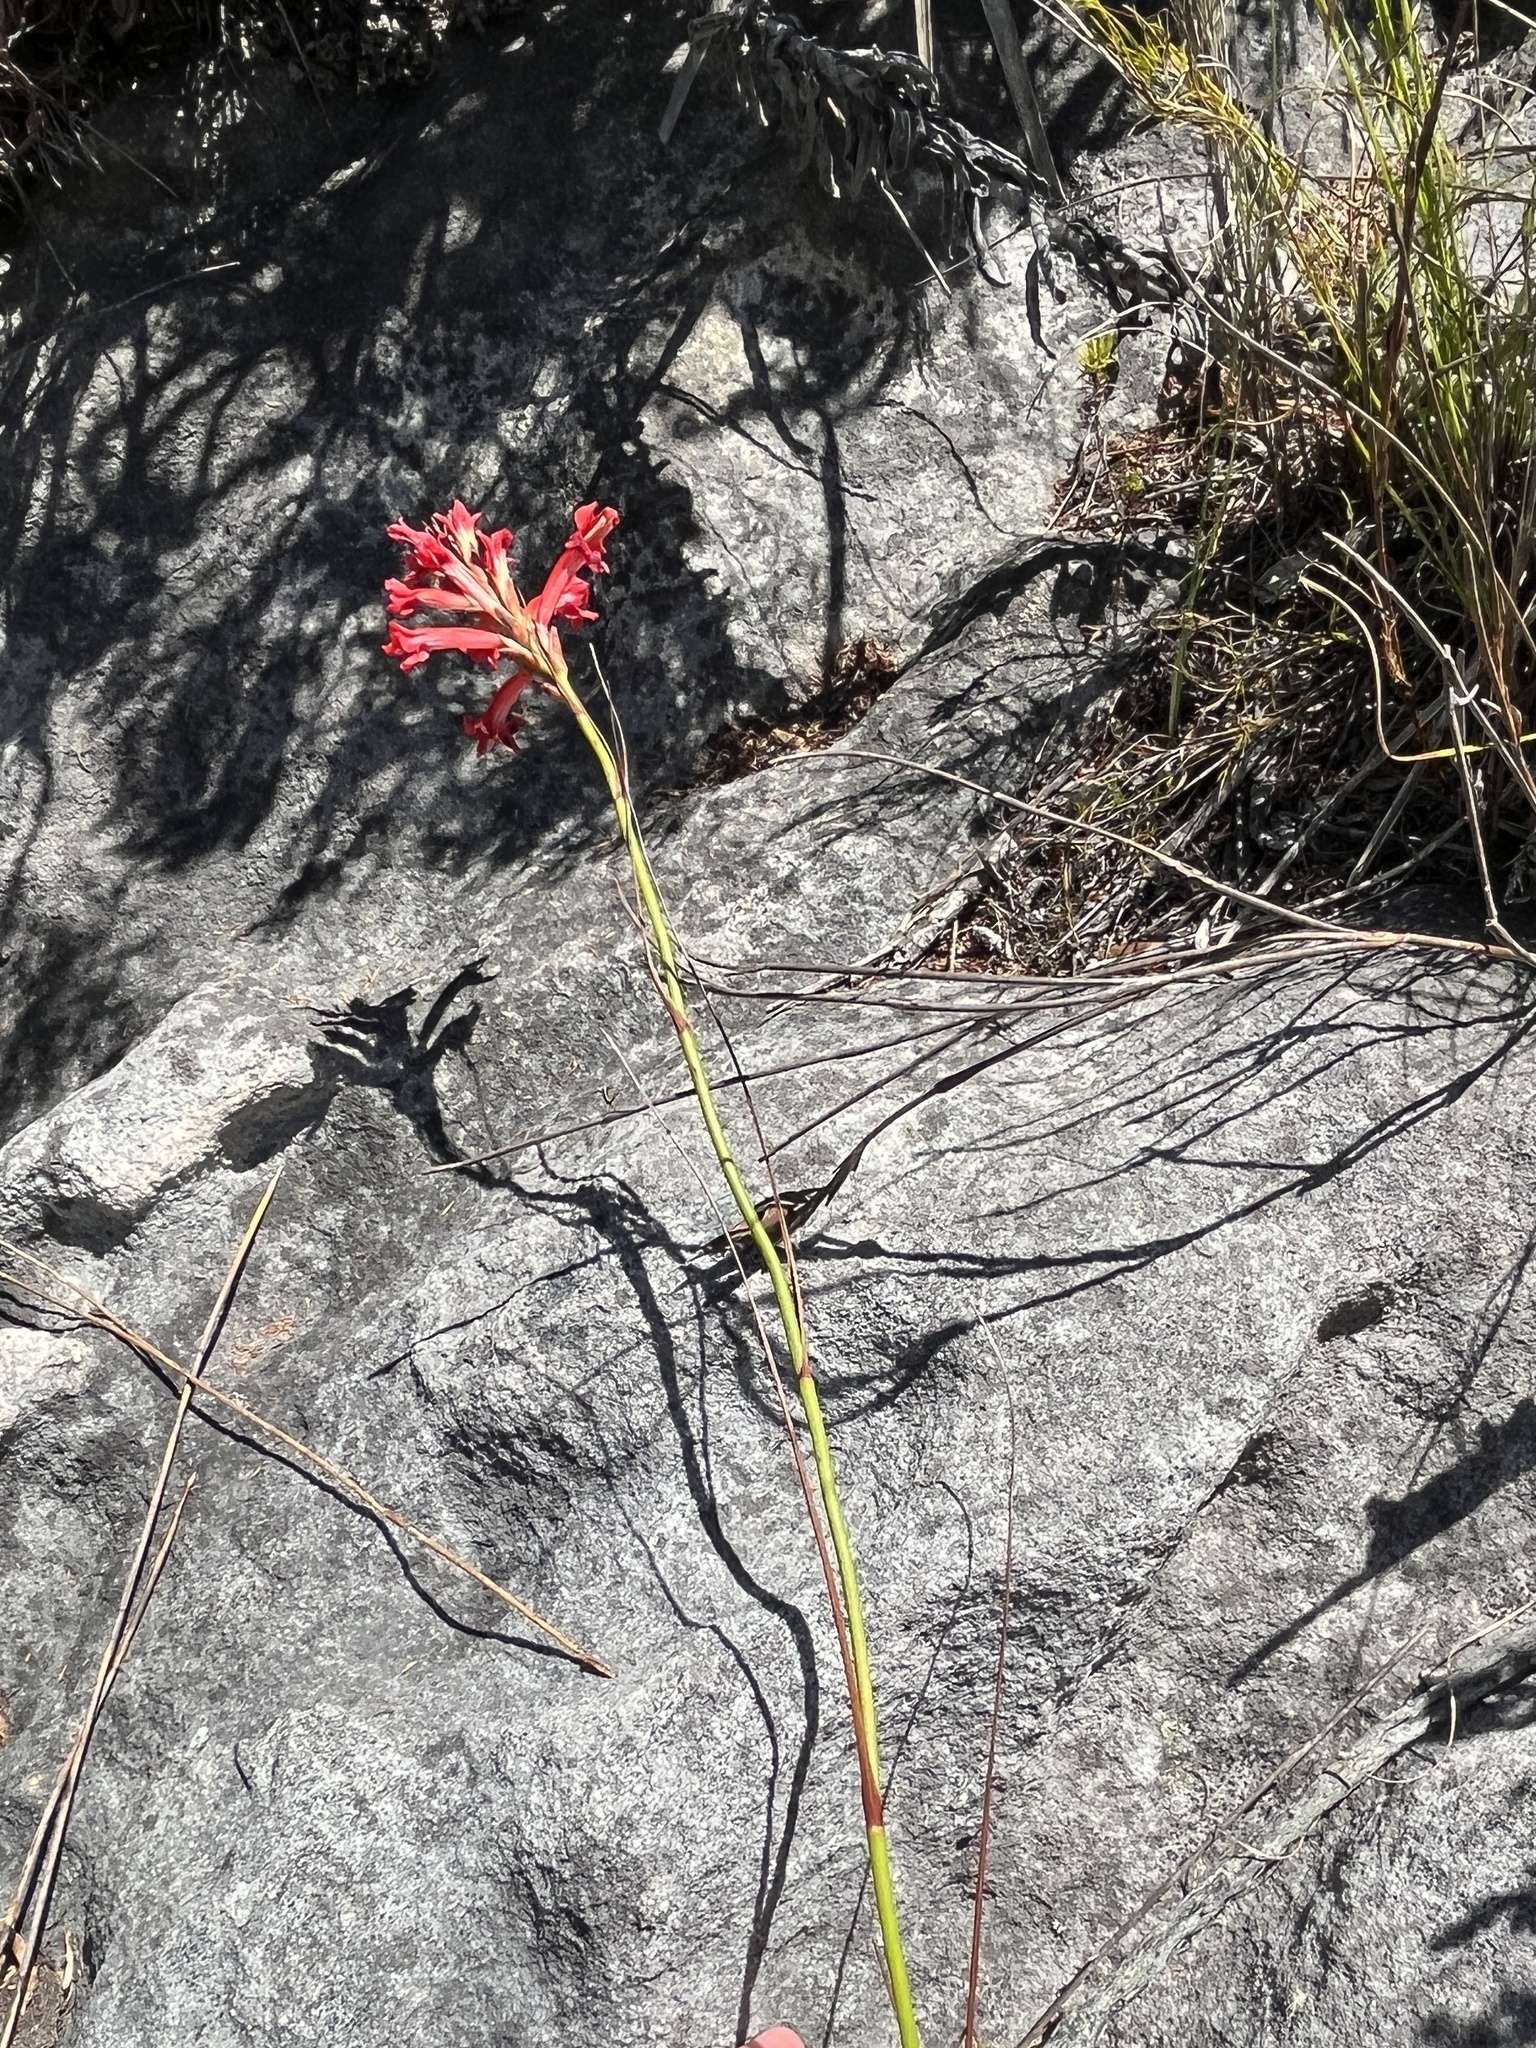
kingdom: Plantae
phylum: Tracheophyta
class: Liliopsida
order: Asparagales
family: Iridaceae
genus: Tritoniopsis
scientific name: Tritoniopsis triticea
